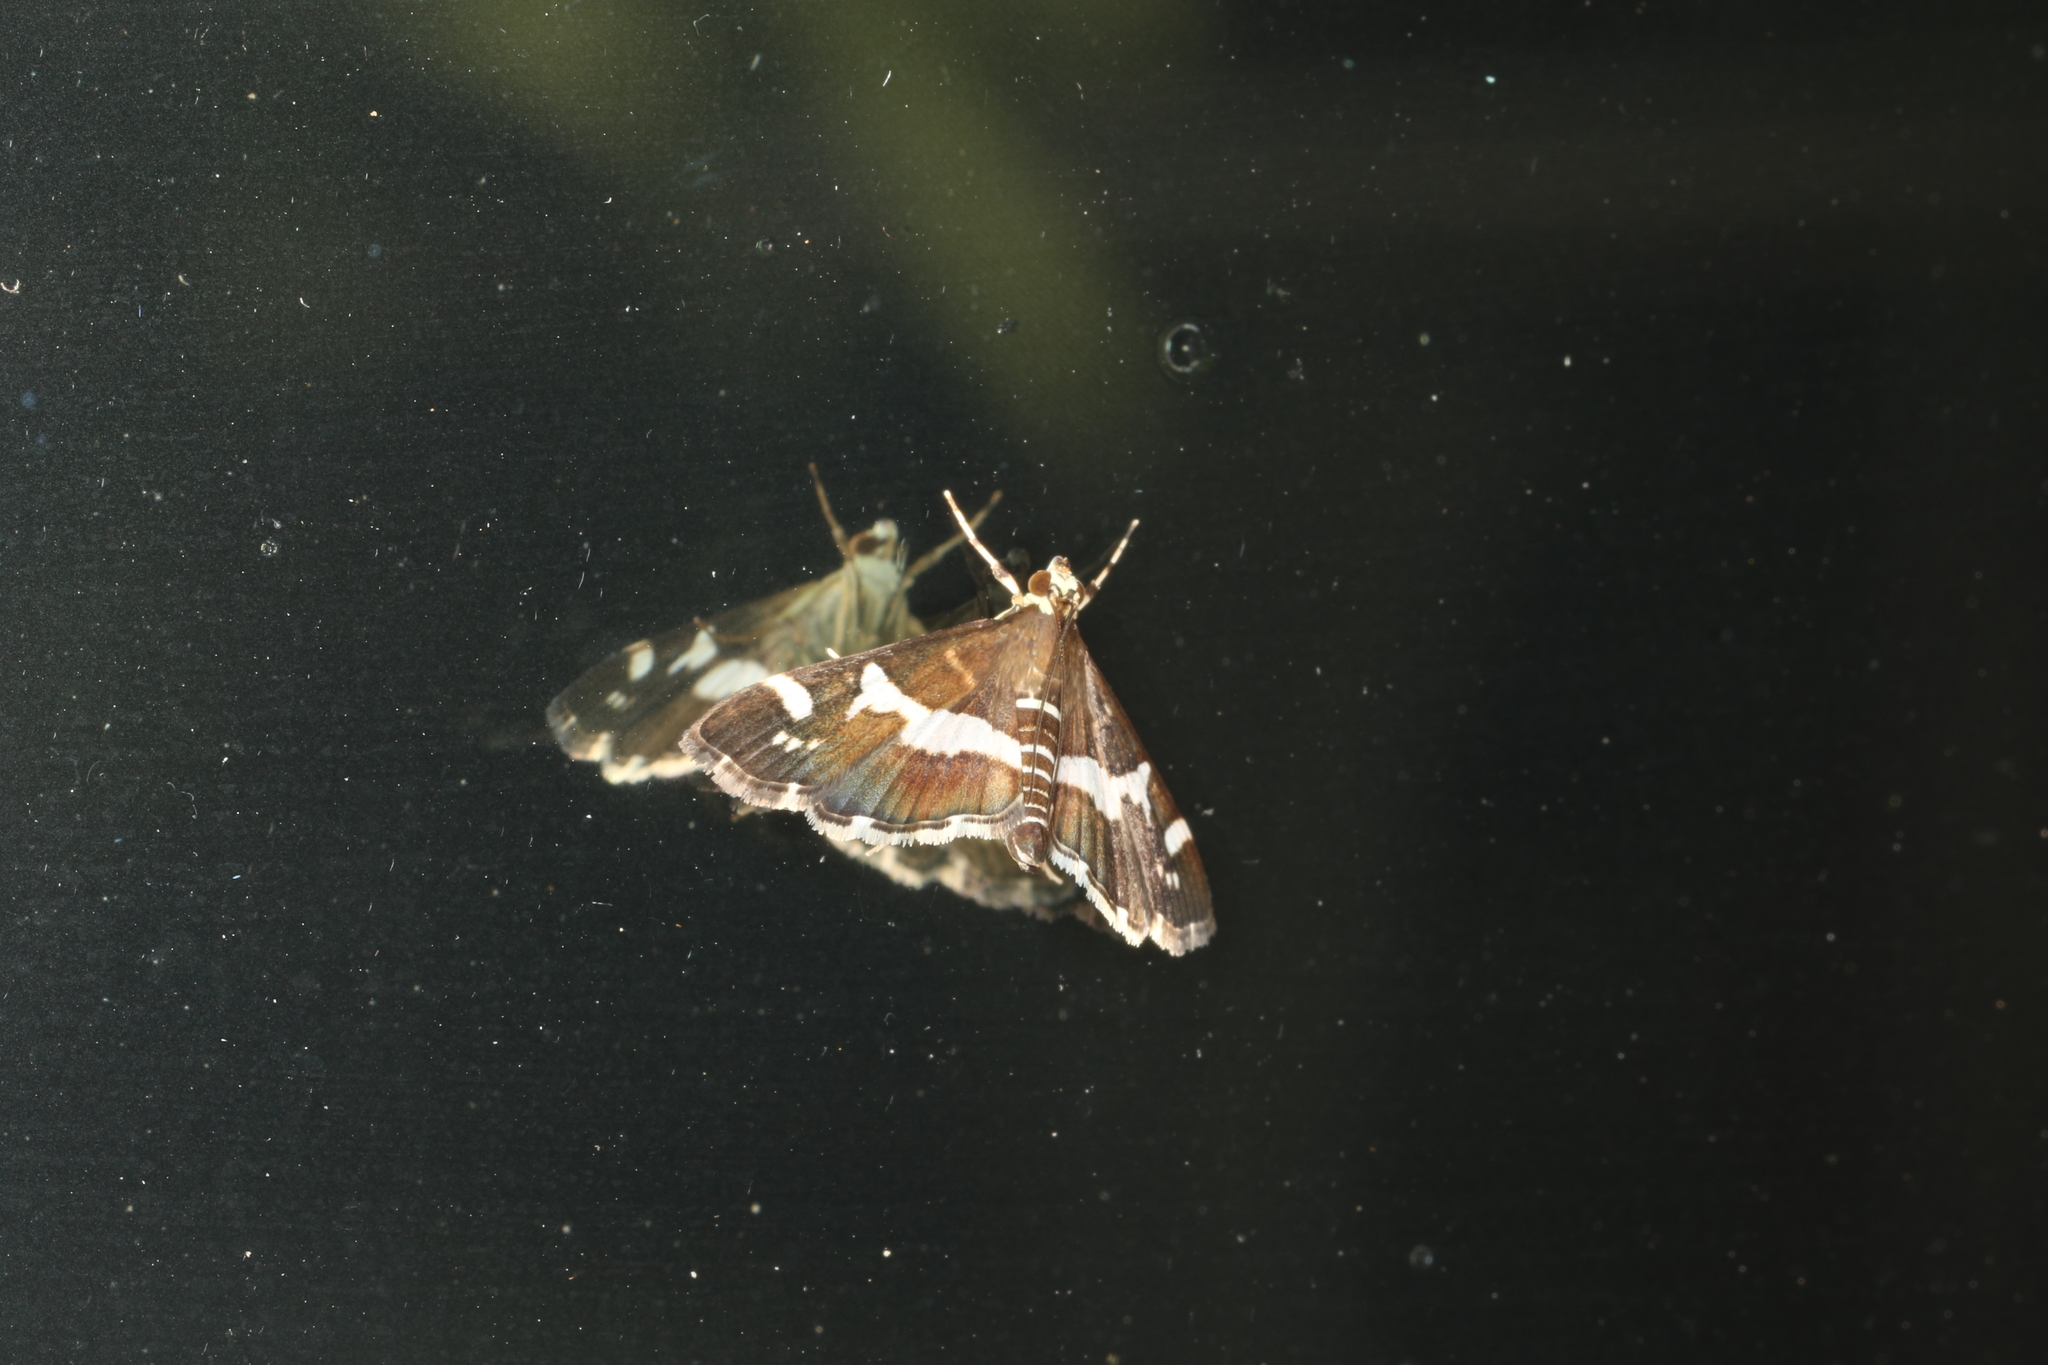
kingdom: Animalia
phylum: Arthropoda
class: Insecta
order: Lepidoptera
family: Crambidae
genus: Spoladea
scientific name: Spoladea recurvalis
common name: Beet webworm moth
